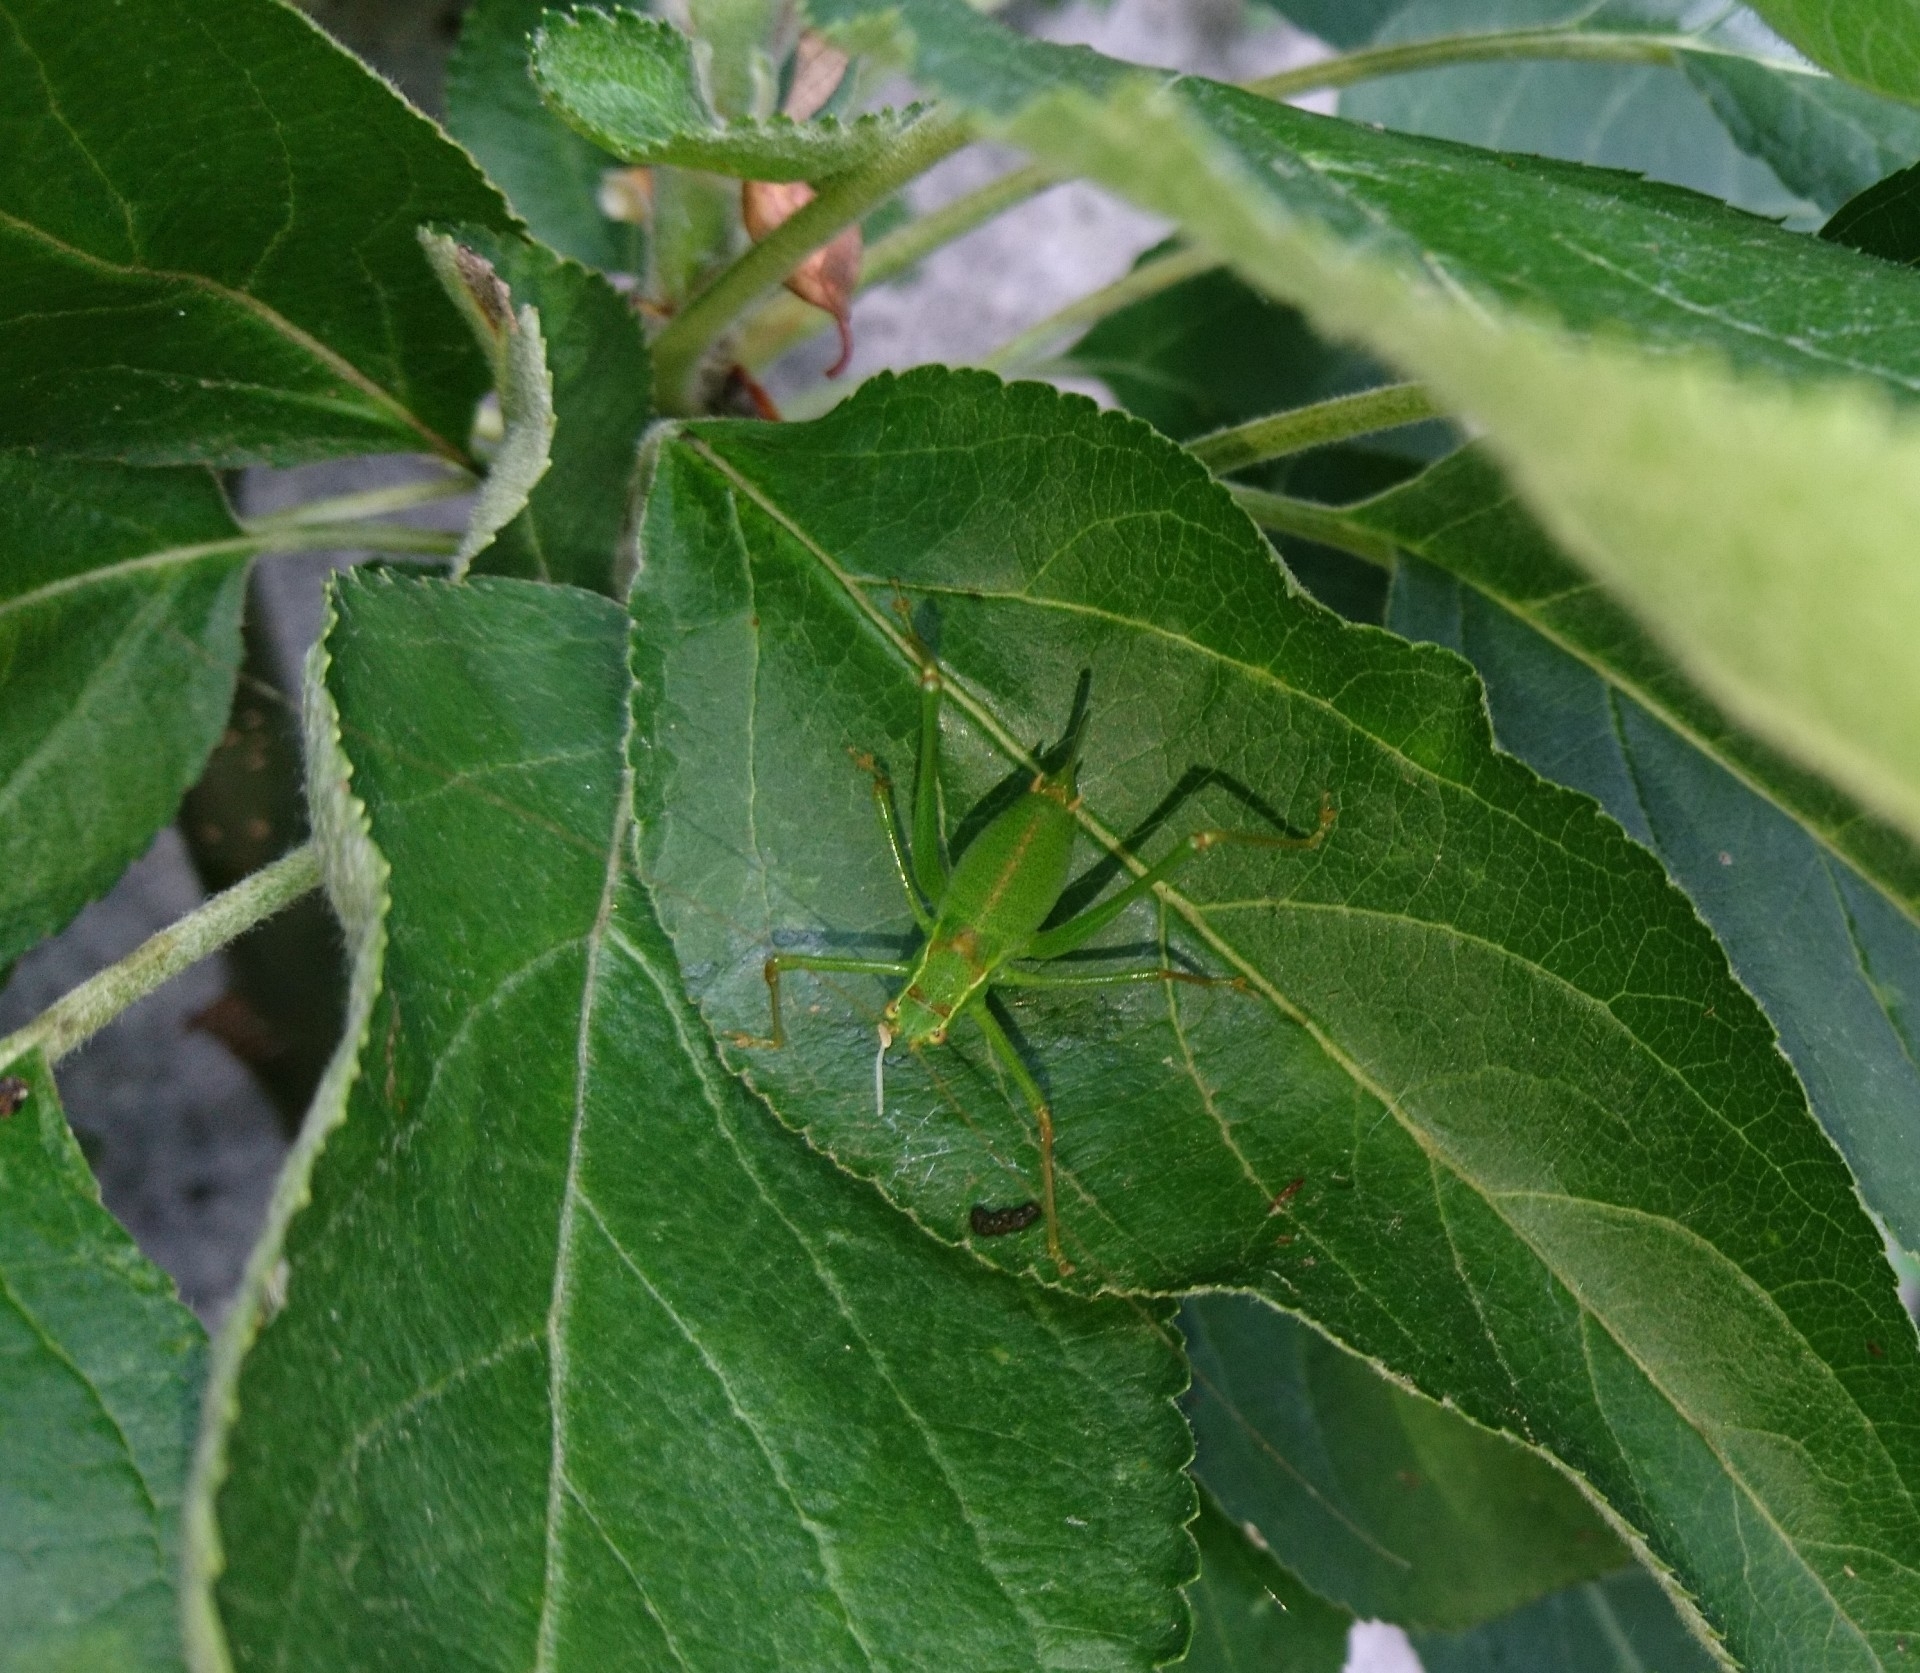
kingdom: Animalia
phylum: Arthropoda
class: Insecta
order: Orthoptera
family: Tettigoniidae
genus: Leptophyes
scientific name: Leptophyes punctatissima
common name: Speckled bush-cricket
